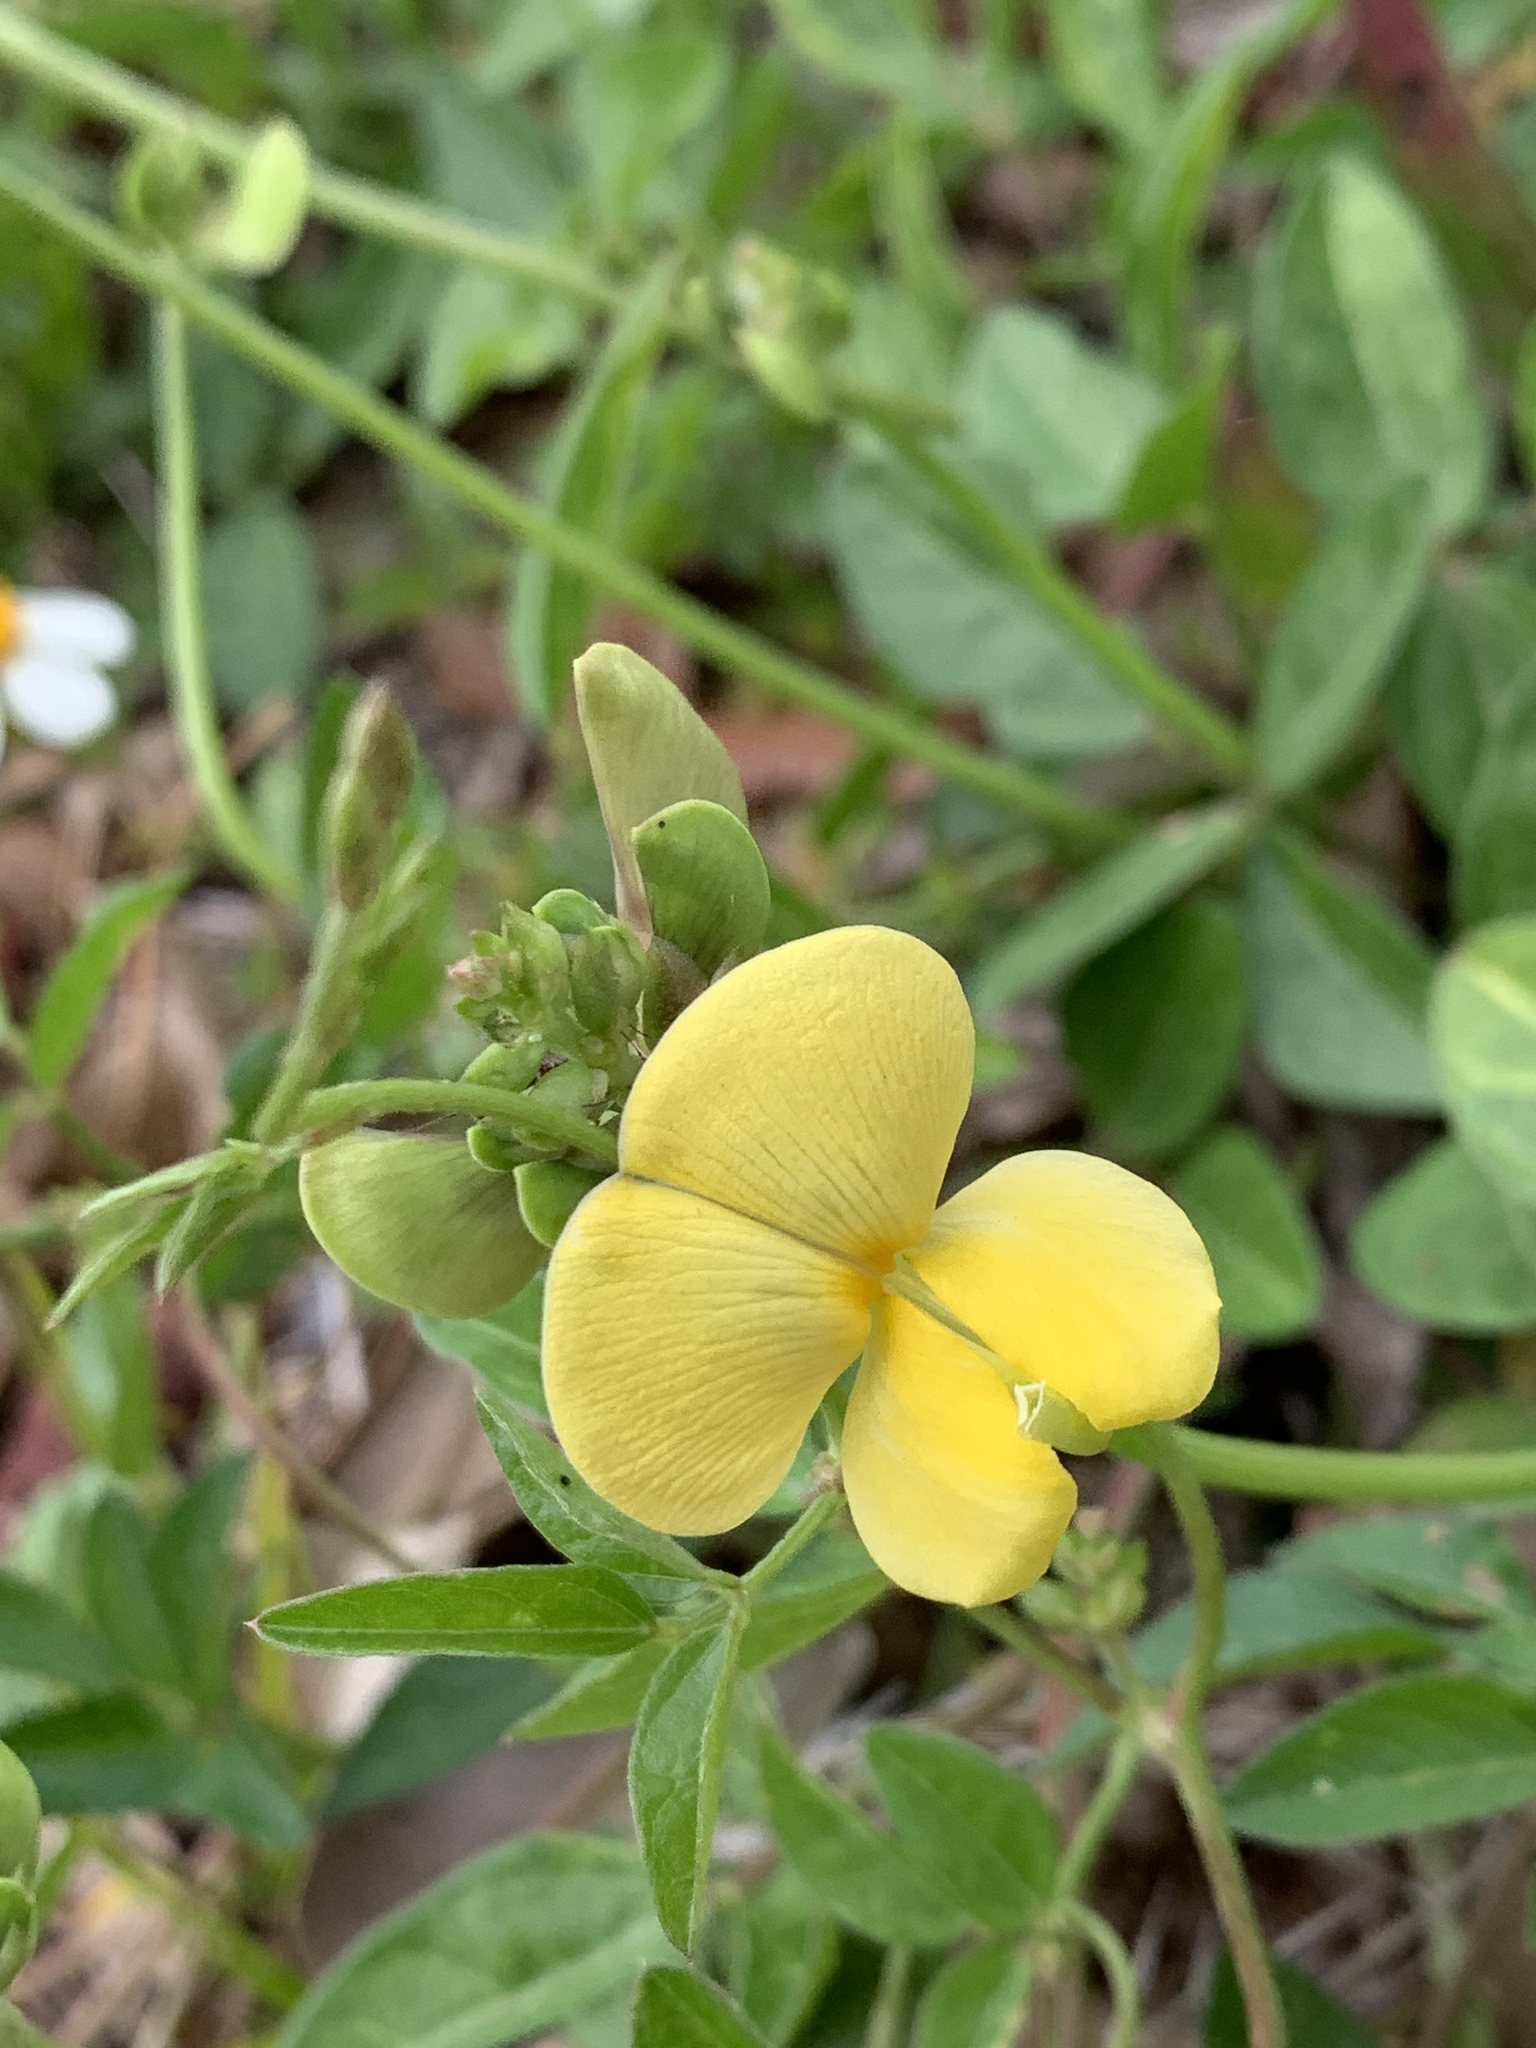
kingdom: Plantae
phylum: Tracheophyta
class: Magnoliopsida
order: Fabales
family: Fabaceae
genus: Vigna
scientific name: Vigna luteola
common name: Hairypod cowpea
